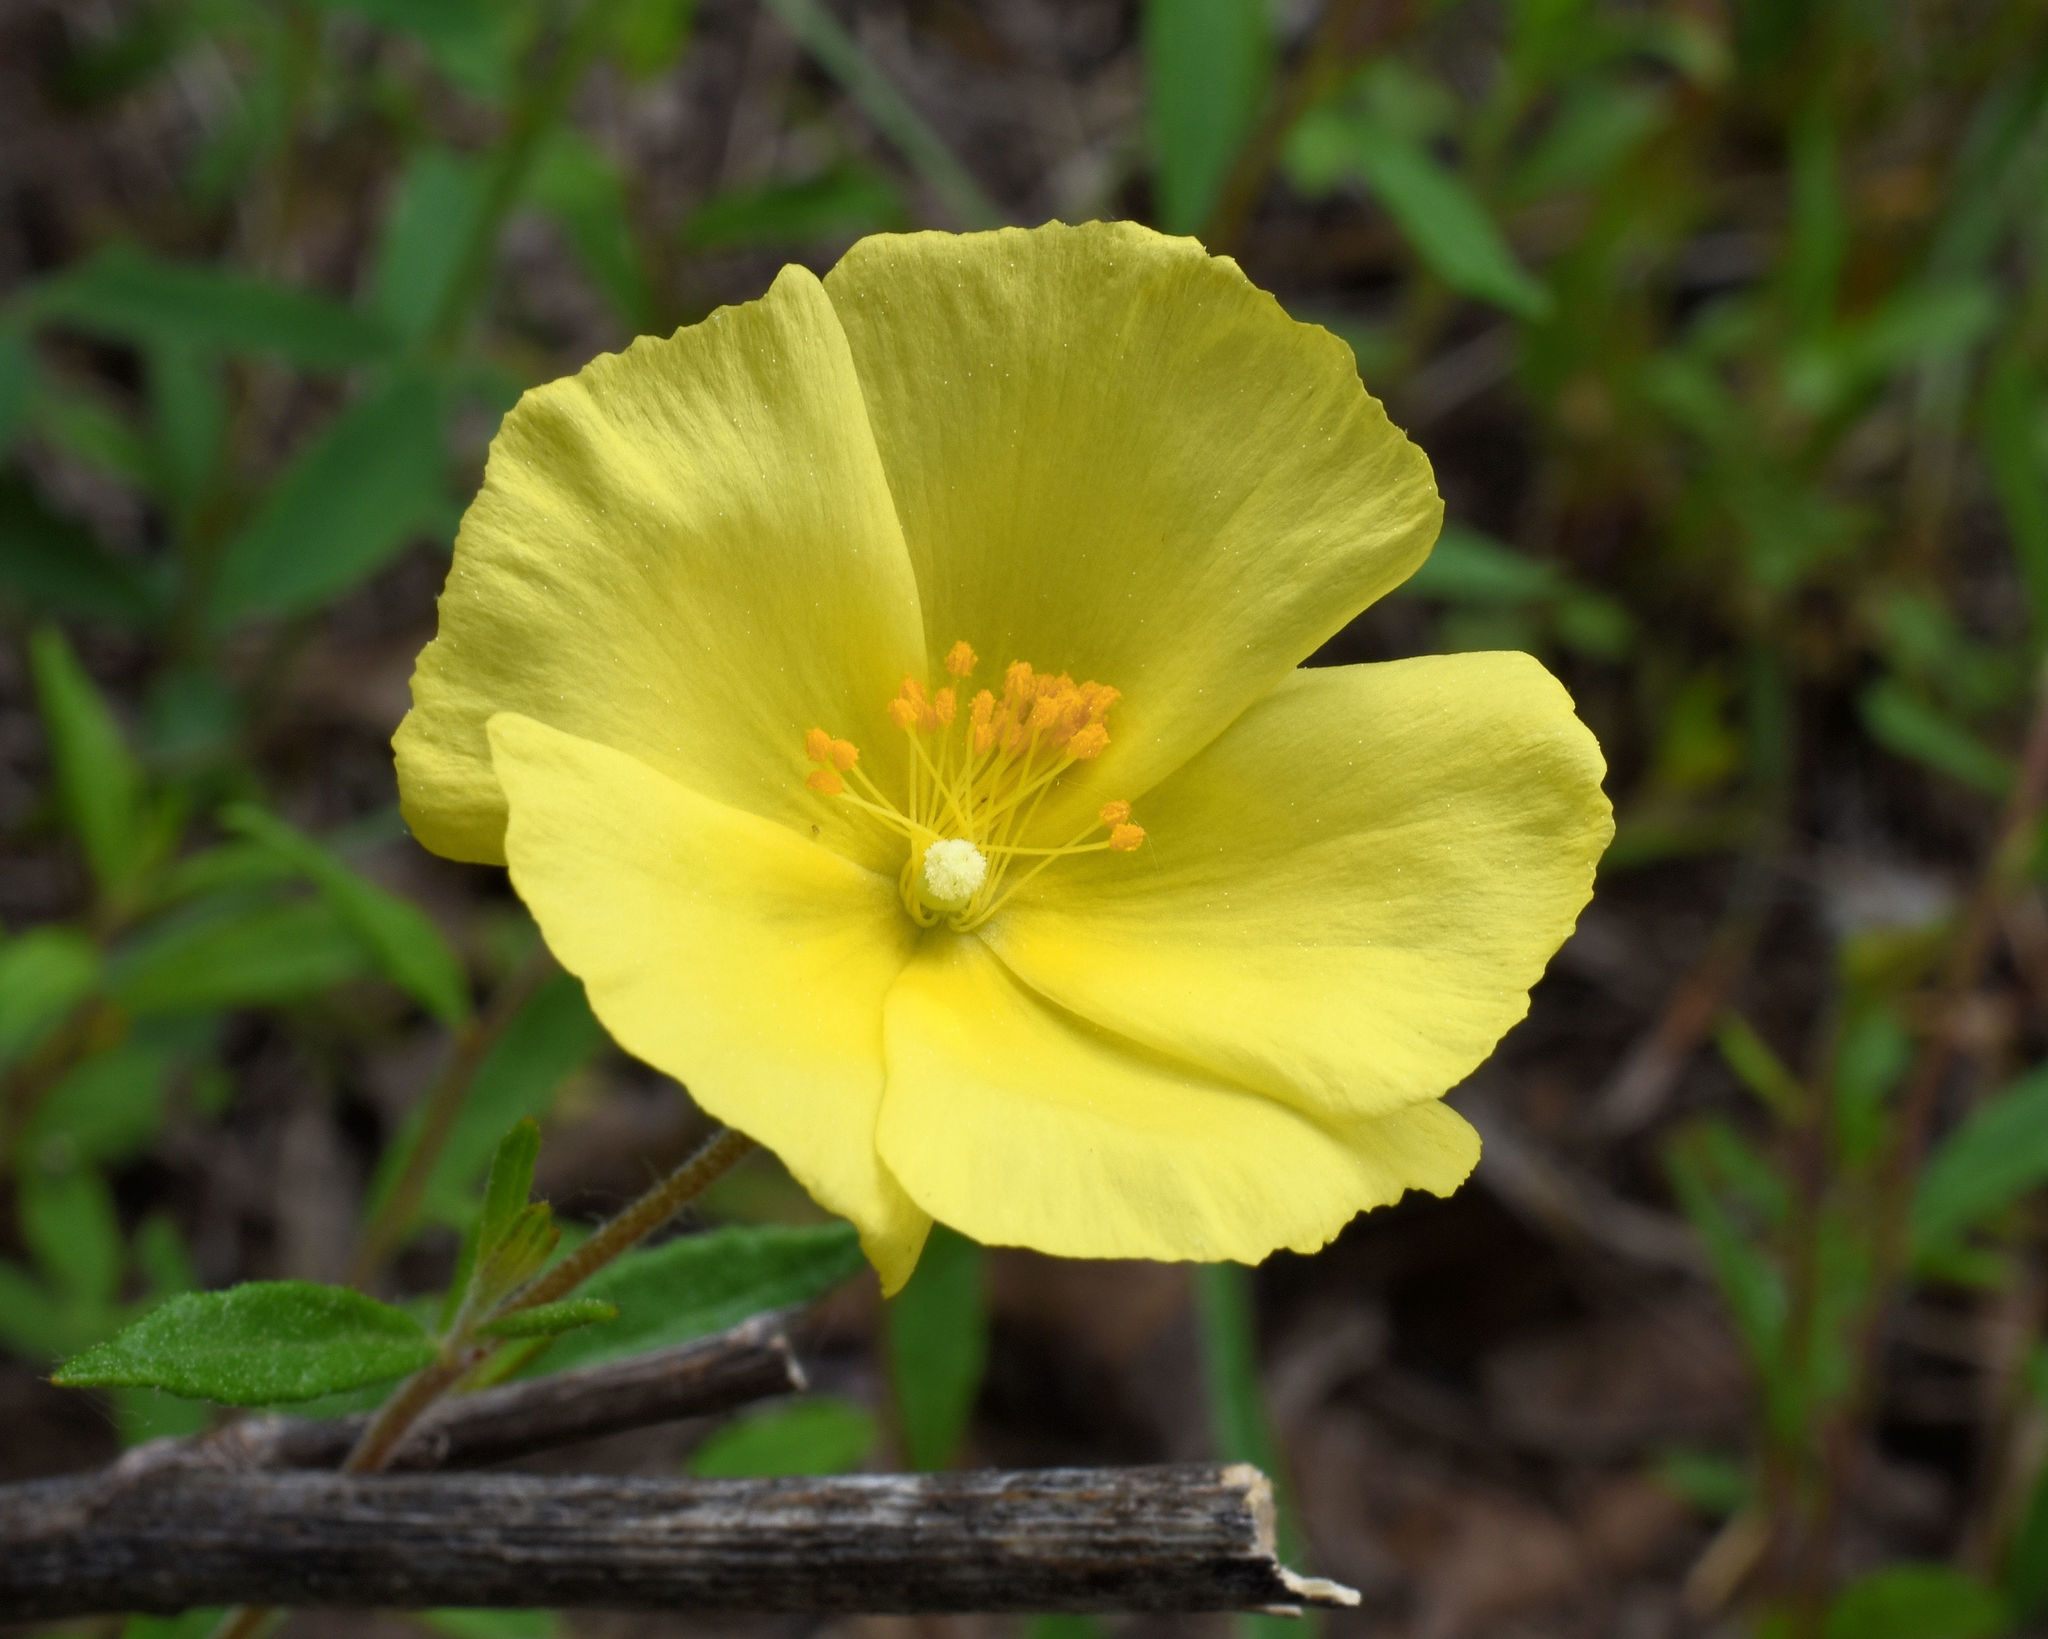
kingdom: Plantae
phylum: Tracheophyta
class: Magnoliopsida
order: Malvales
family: Cistaceae
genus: Crocanthemum
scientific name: Crocanthemum canadense
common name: Canada frostweed
